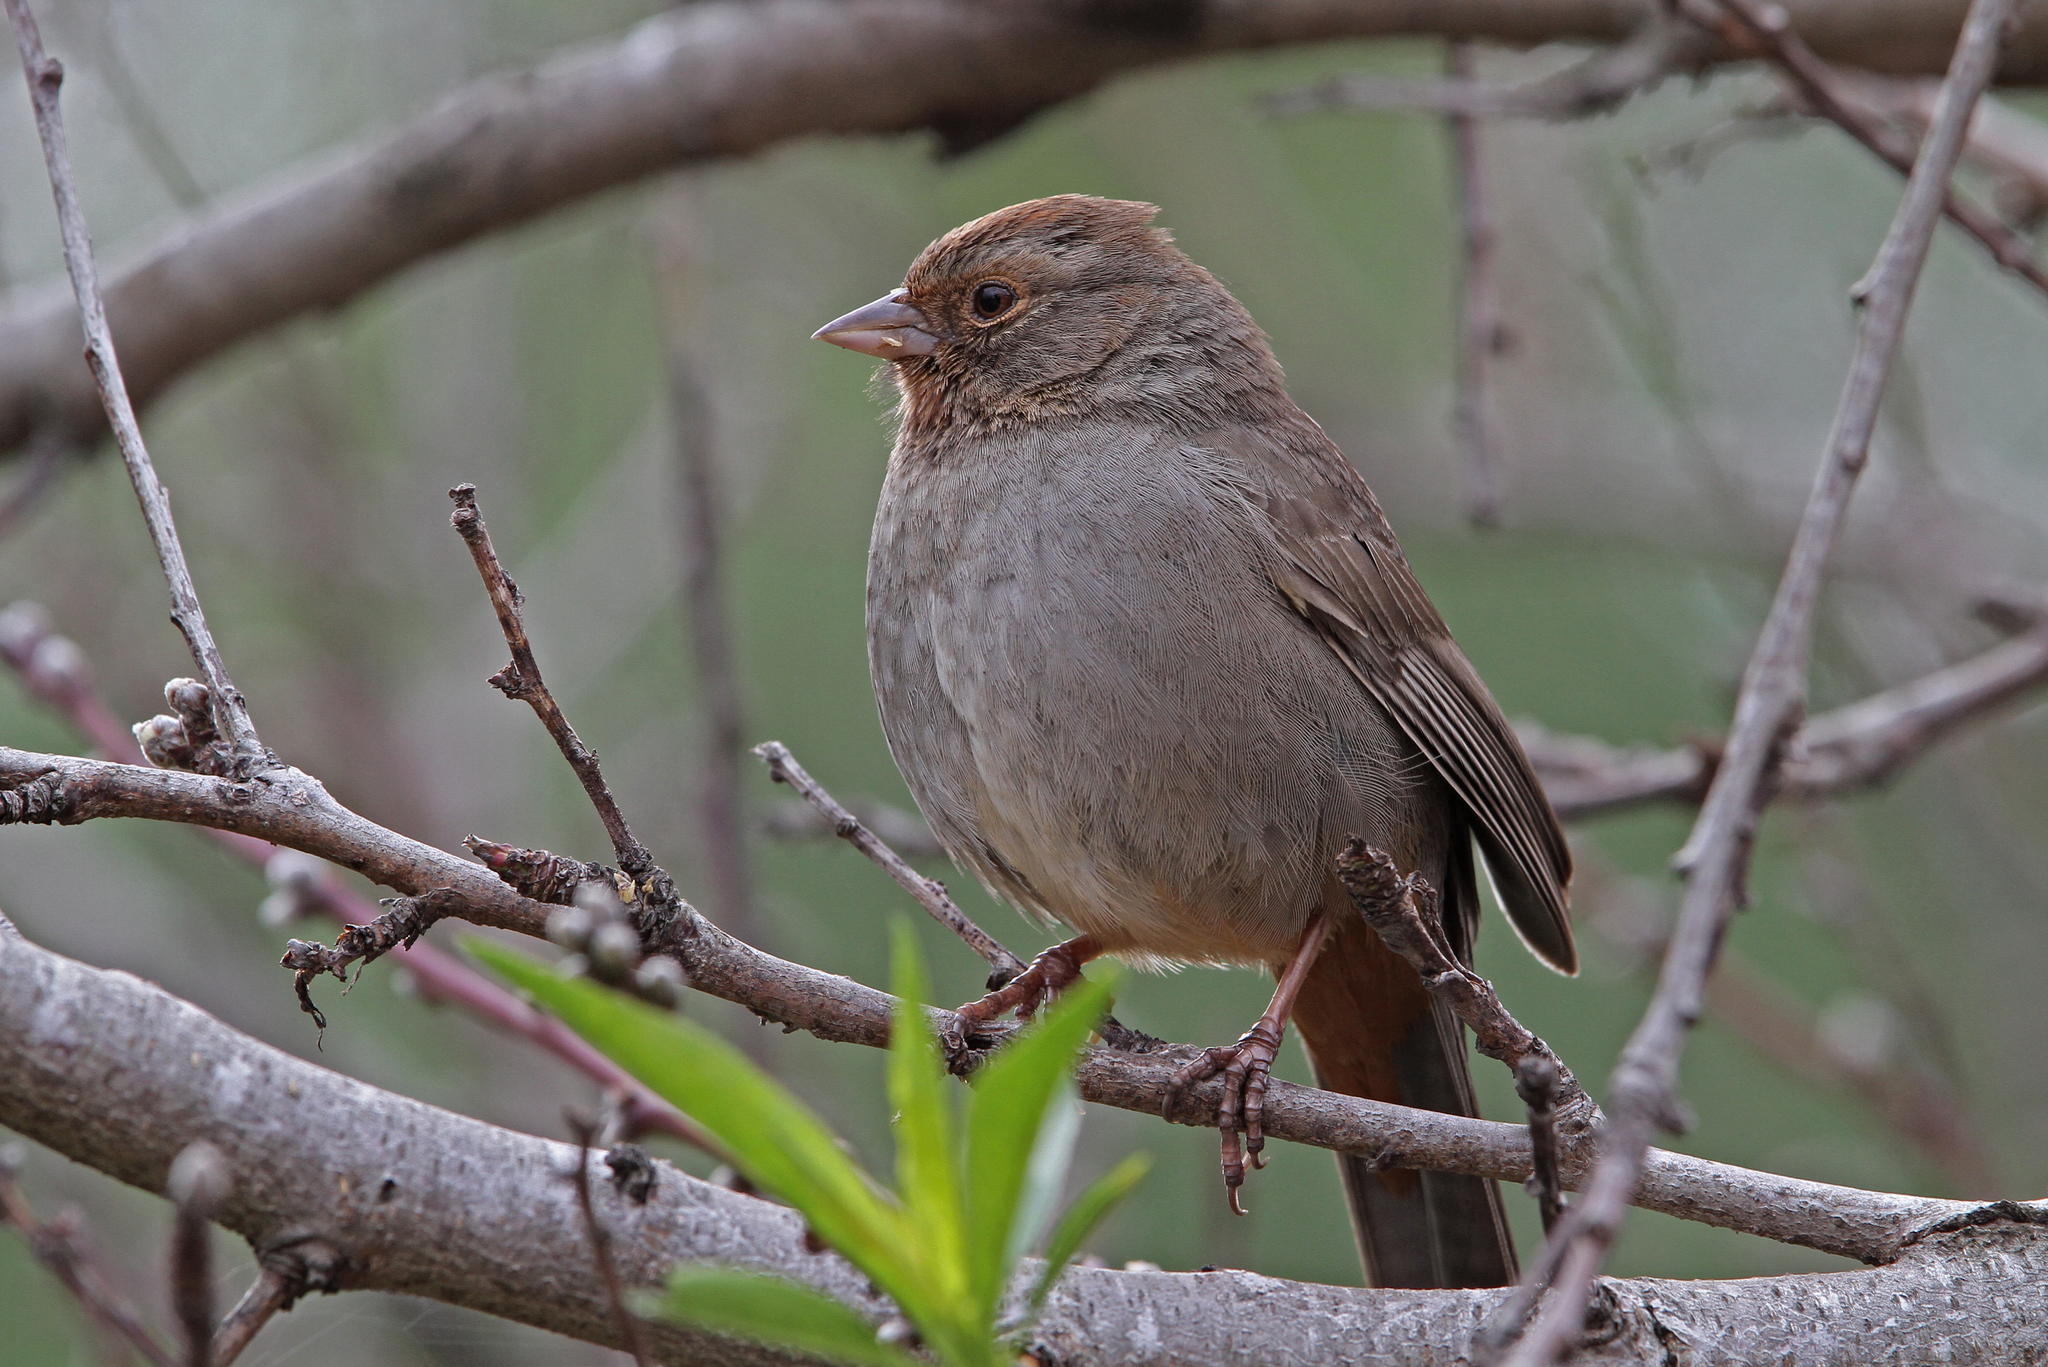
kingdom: Animalia
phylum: Chordata
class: Aves
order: Passeriformes
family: Passerellidae
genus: Melozone
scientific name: Melozone crissalis
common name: California towhee
